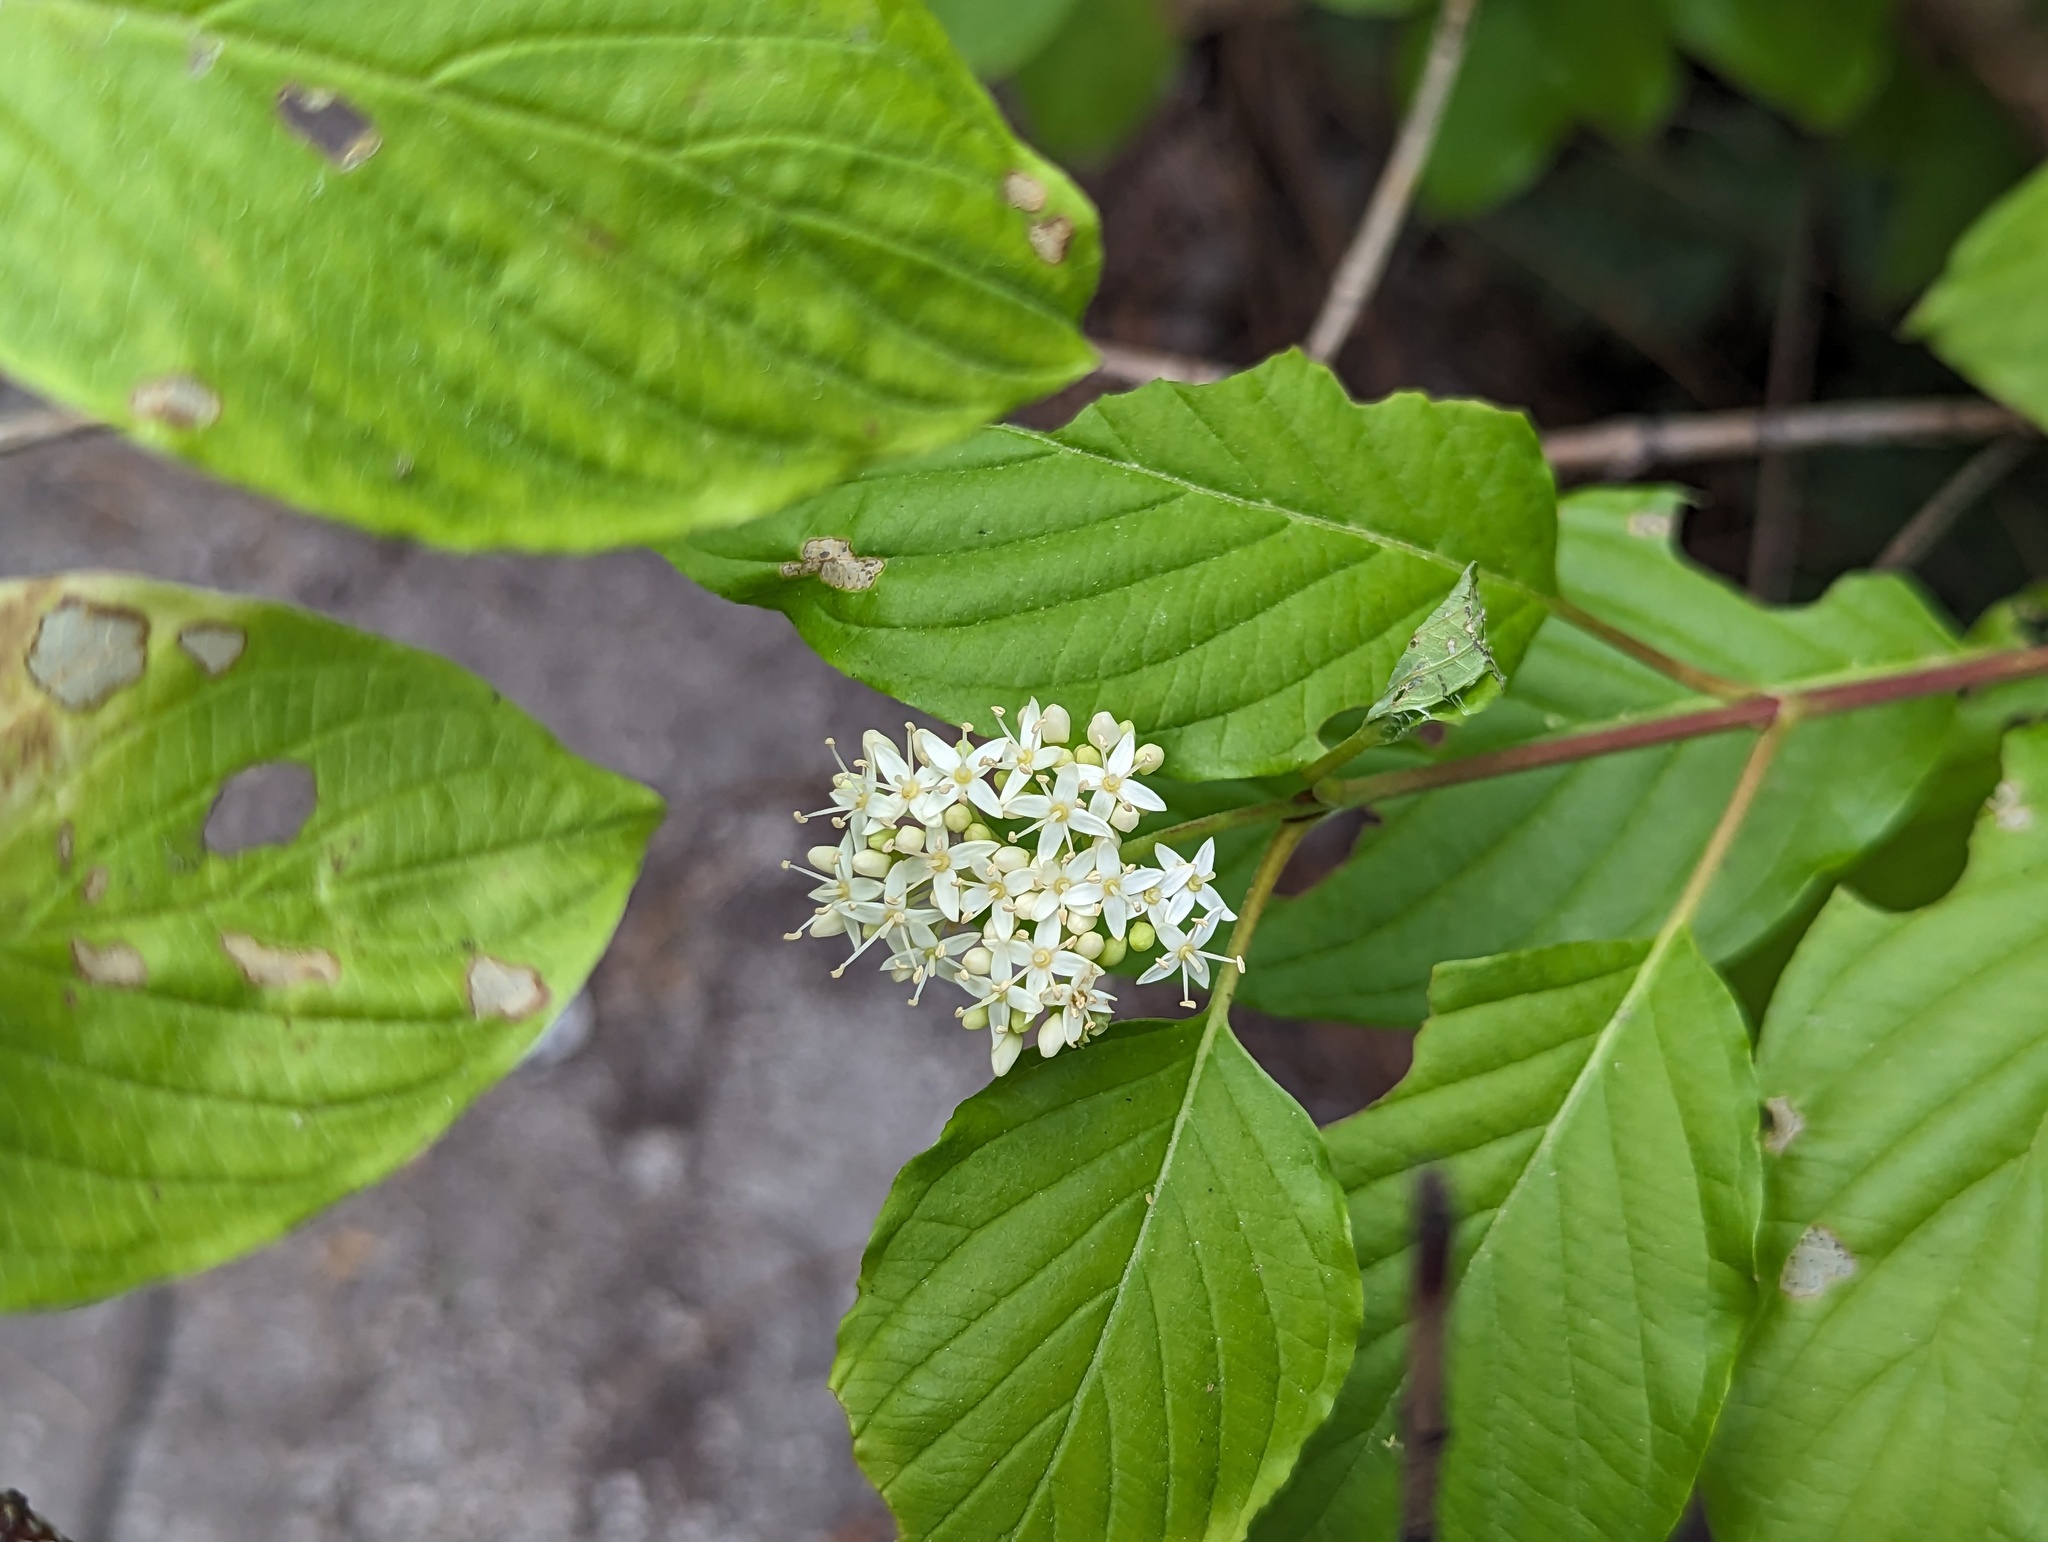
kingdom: Plantae
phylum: Tracheophyta
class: Magnoliopsida
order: Cornales
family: Cornaceae
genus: Cornus
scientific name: Cornus sericea
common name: Red-osier dogwood
